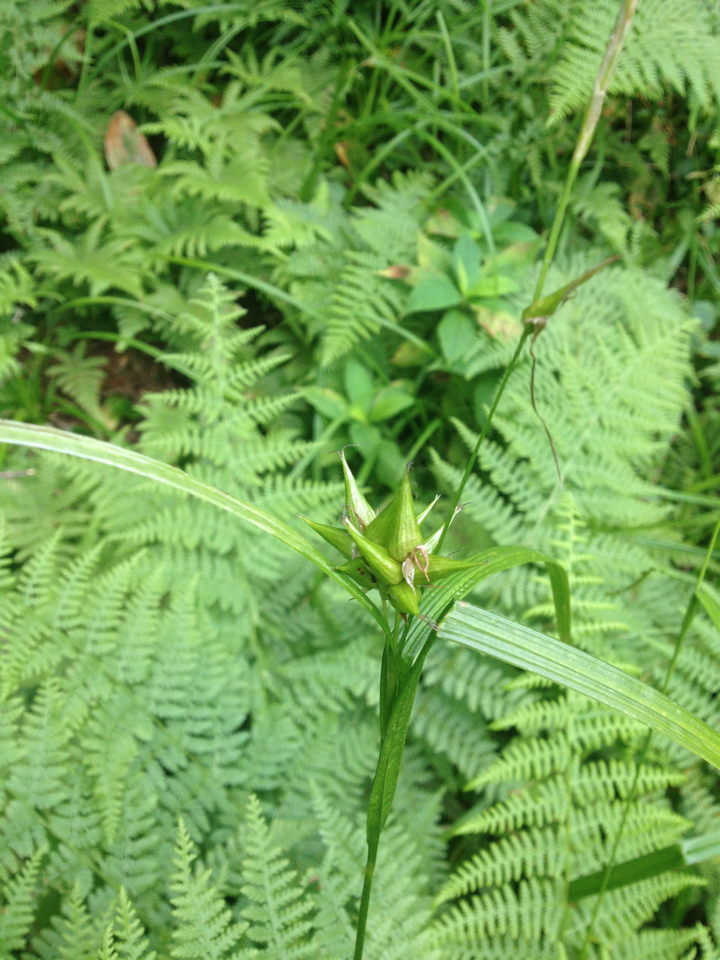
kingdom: Plantae
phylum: Tracheophyta
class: Liliopsida
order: Poales
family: Cyperaceae
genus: Carex
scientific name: Carex intumescens
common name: Greater bladder sedge
